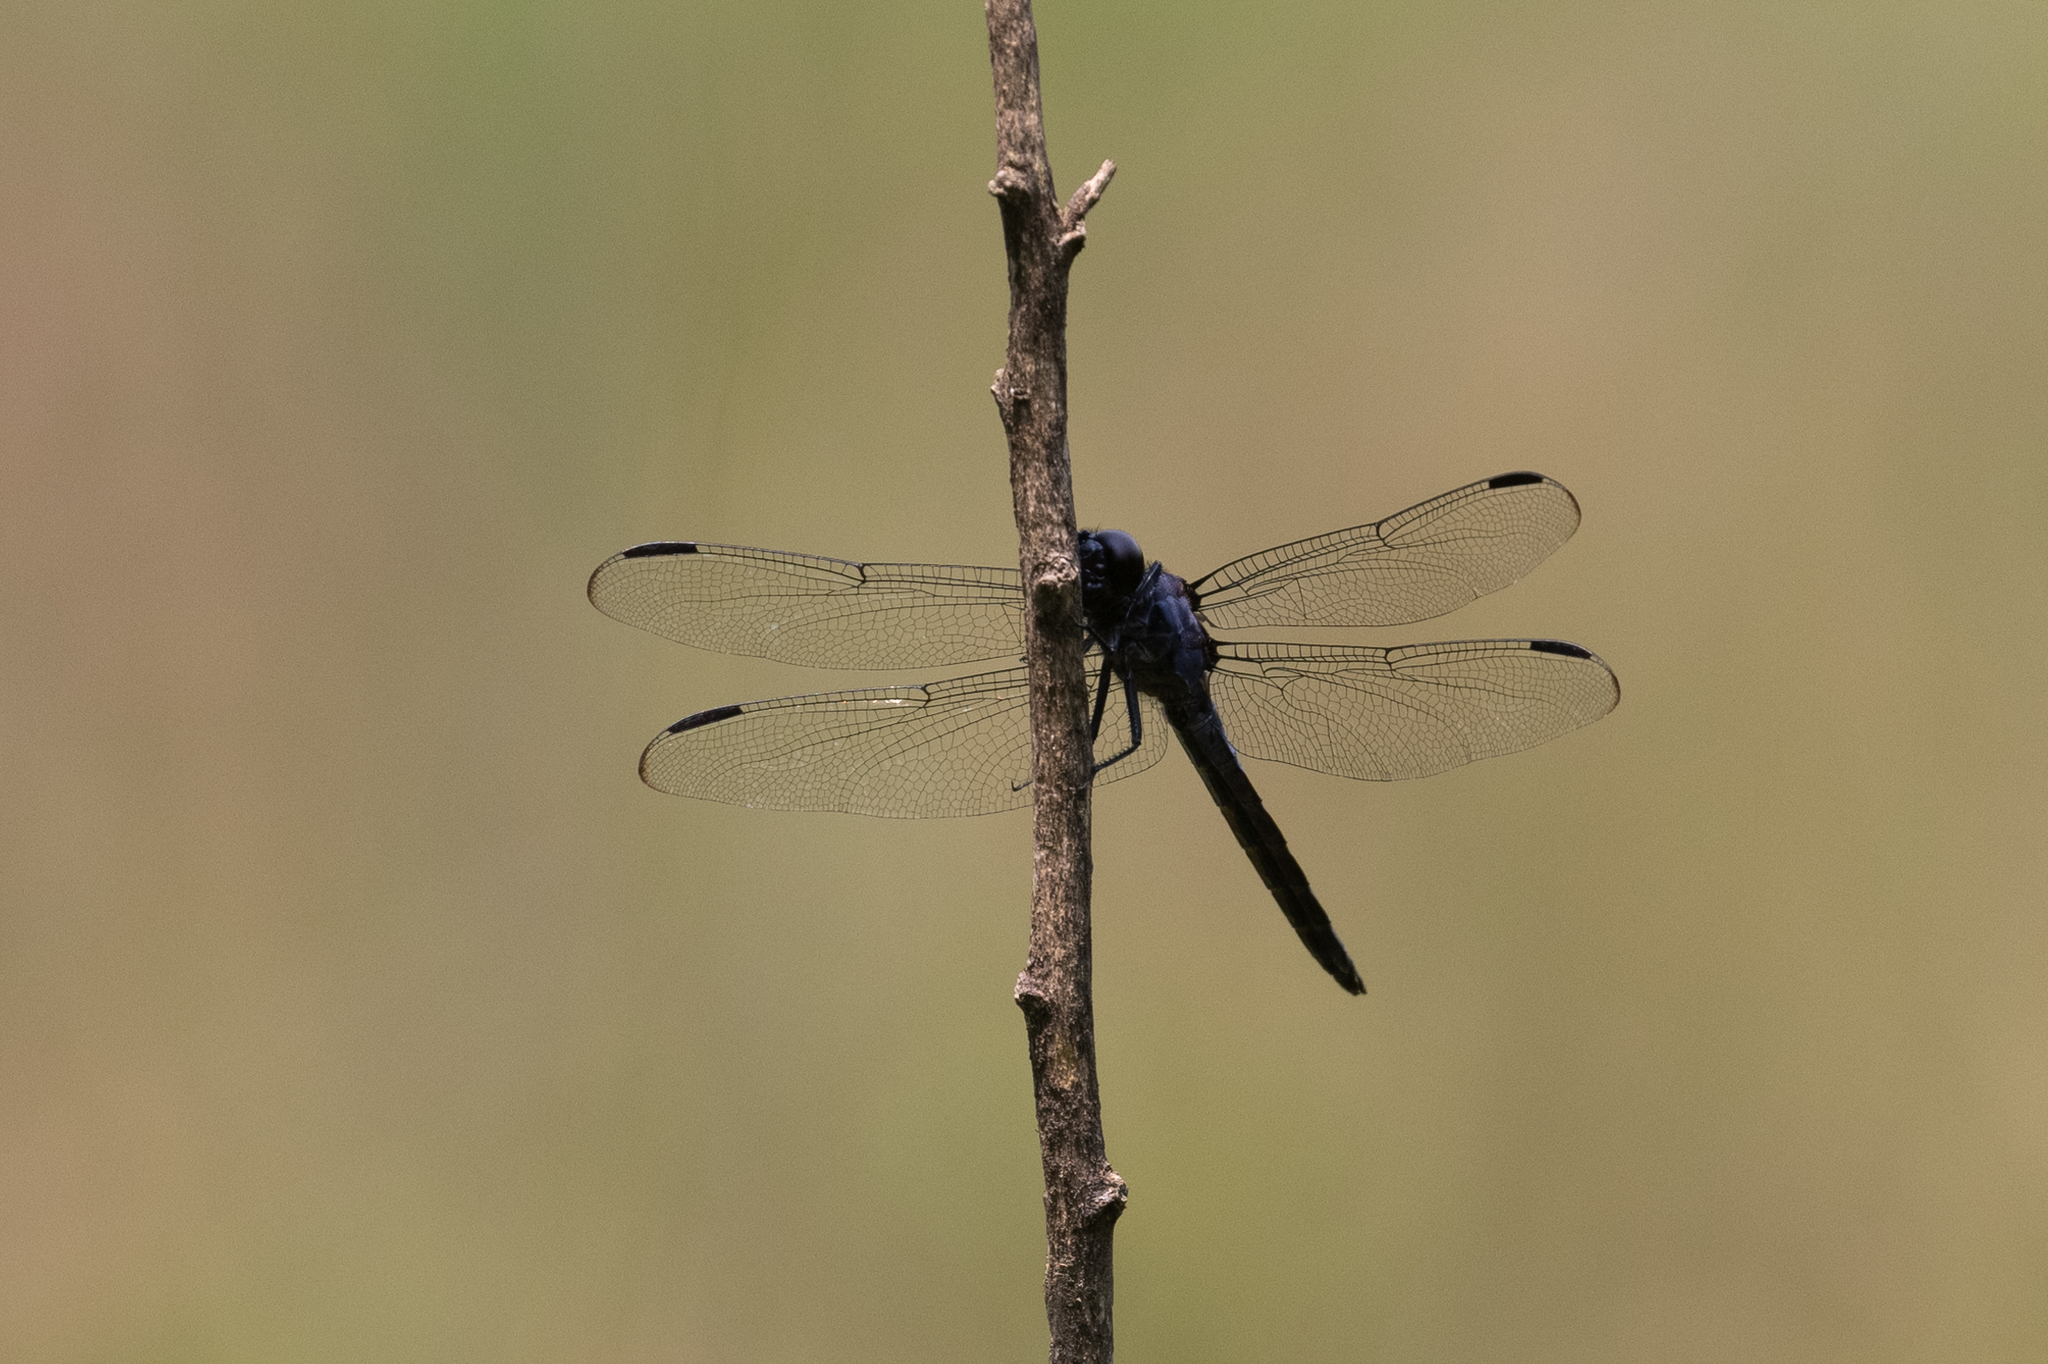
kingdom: Animalia
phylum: Arthropoda
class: Insecta
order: Odonata
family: Libellulidae
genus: Libellula
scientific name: Libellula incesta
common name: Slaty skimmer
